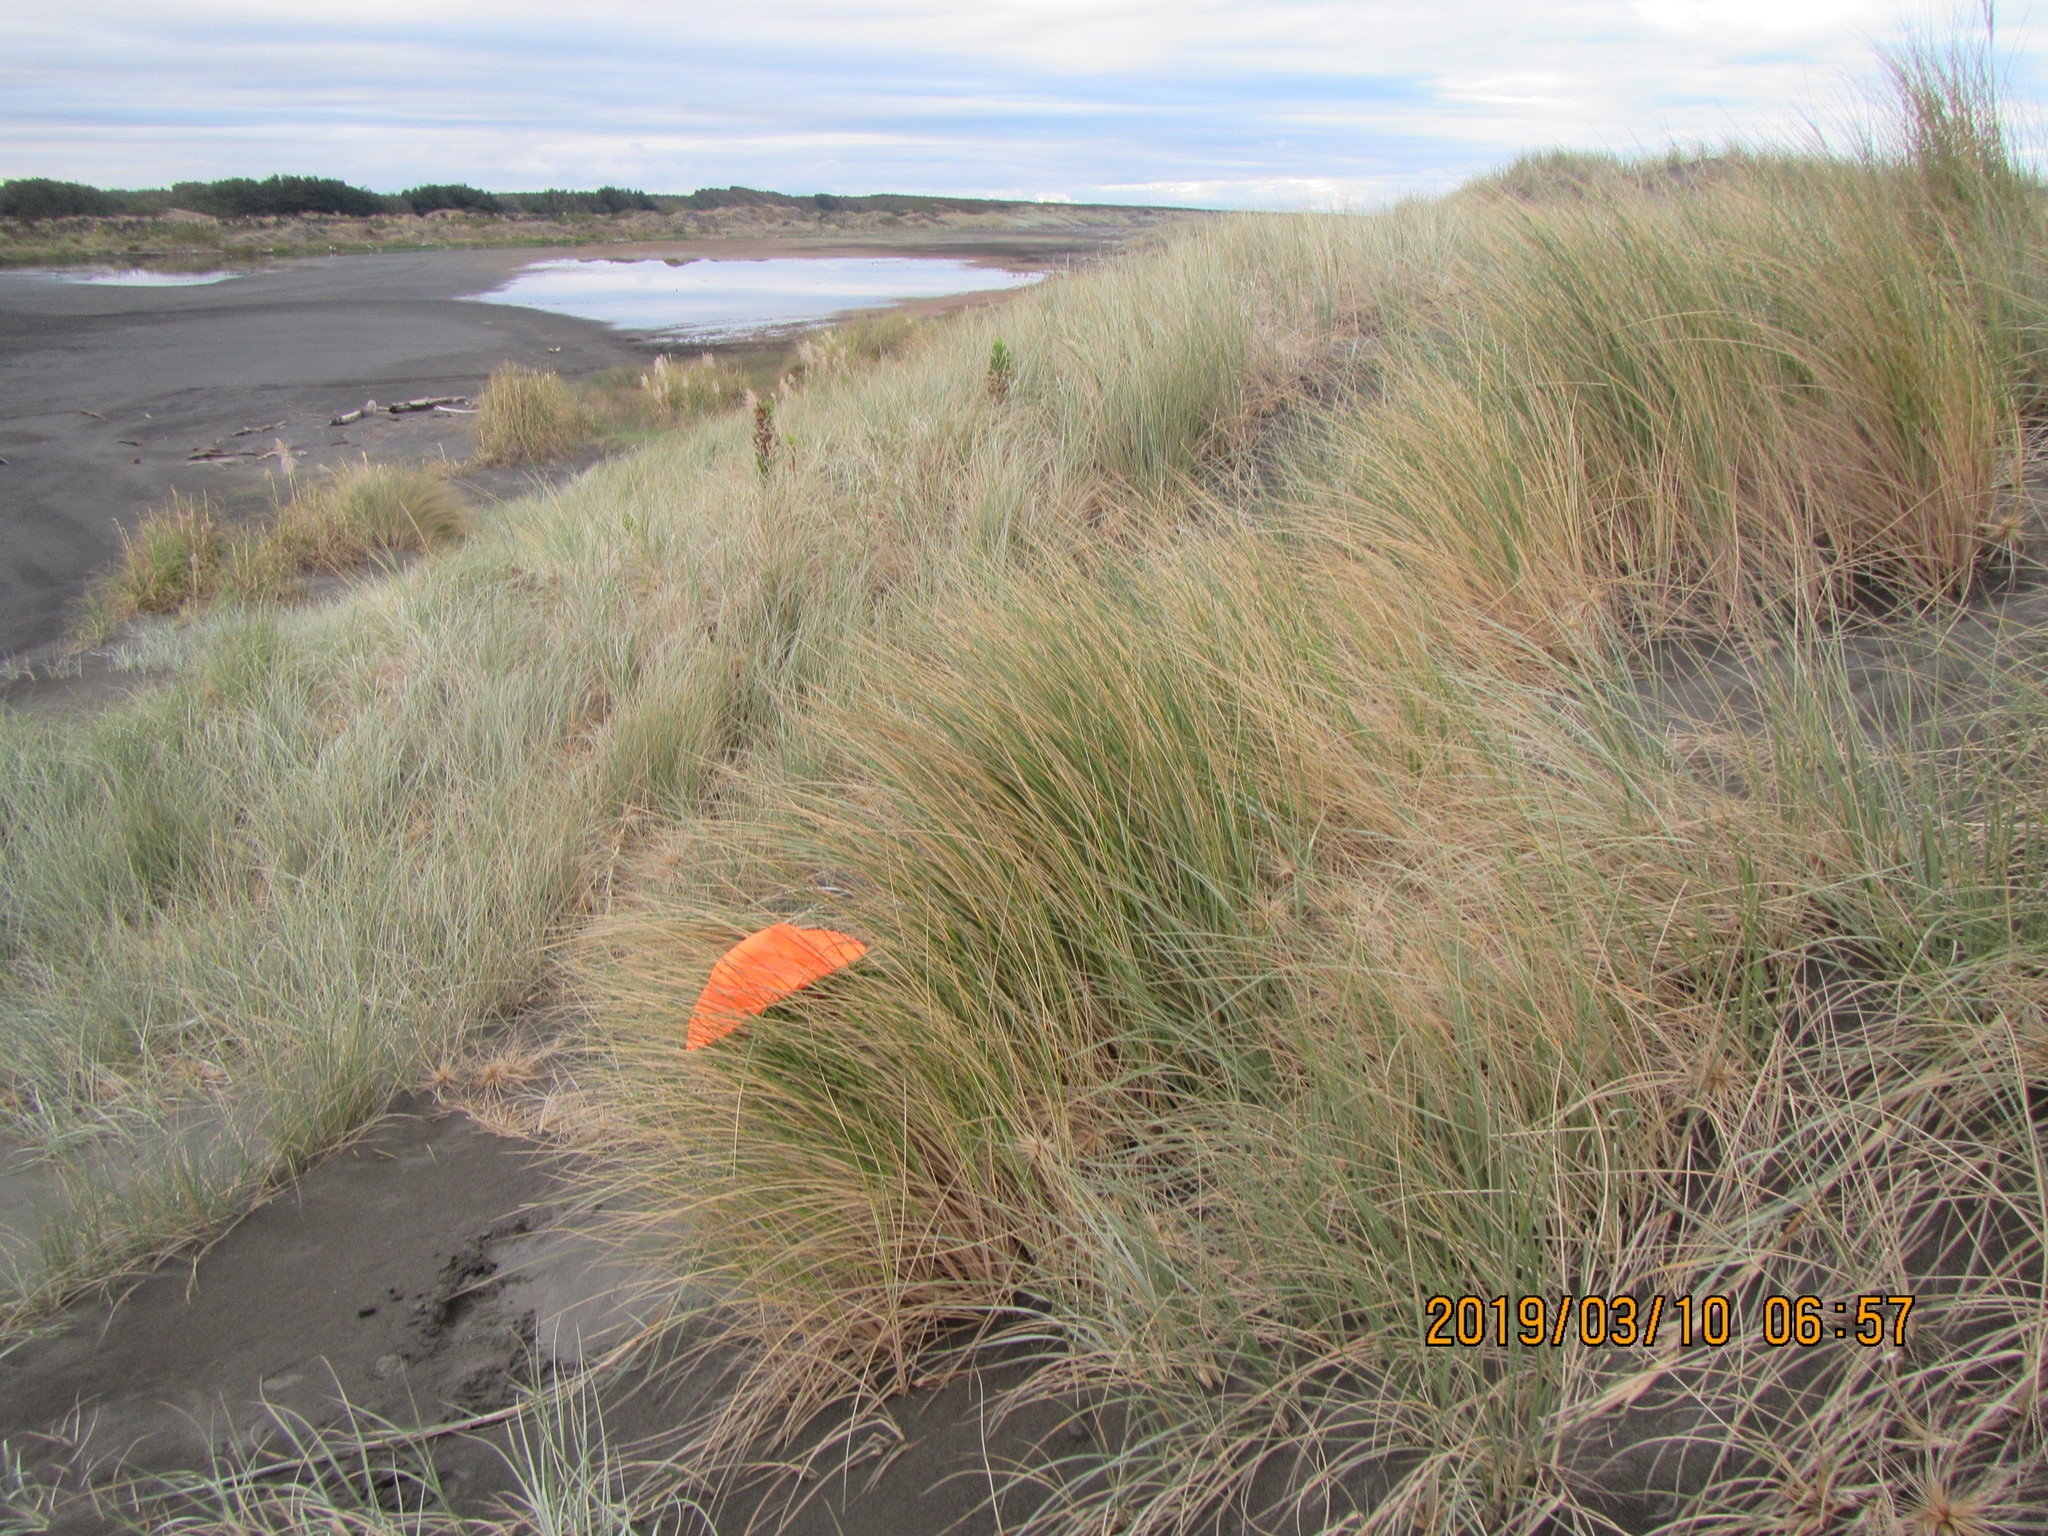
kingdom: Animalia
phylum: Arthropoda
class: Arachnida
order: Araneae
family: Theridiidae
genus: Cryptachaea
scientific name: Cryptachaea veruculata
